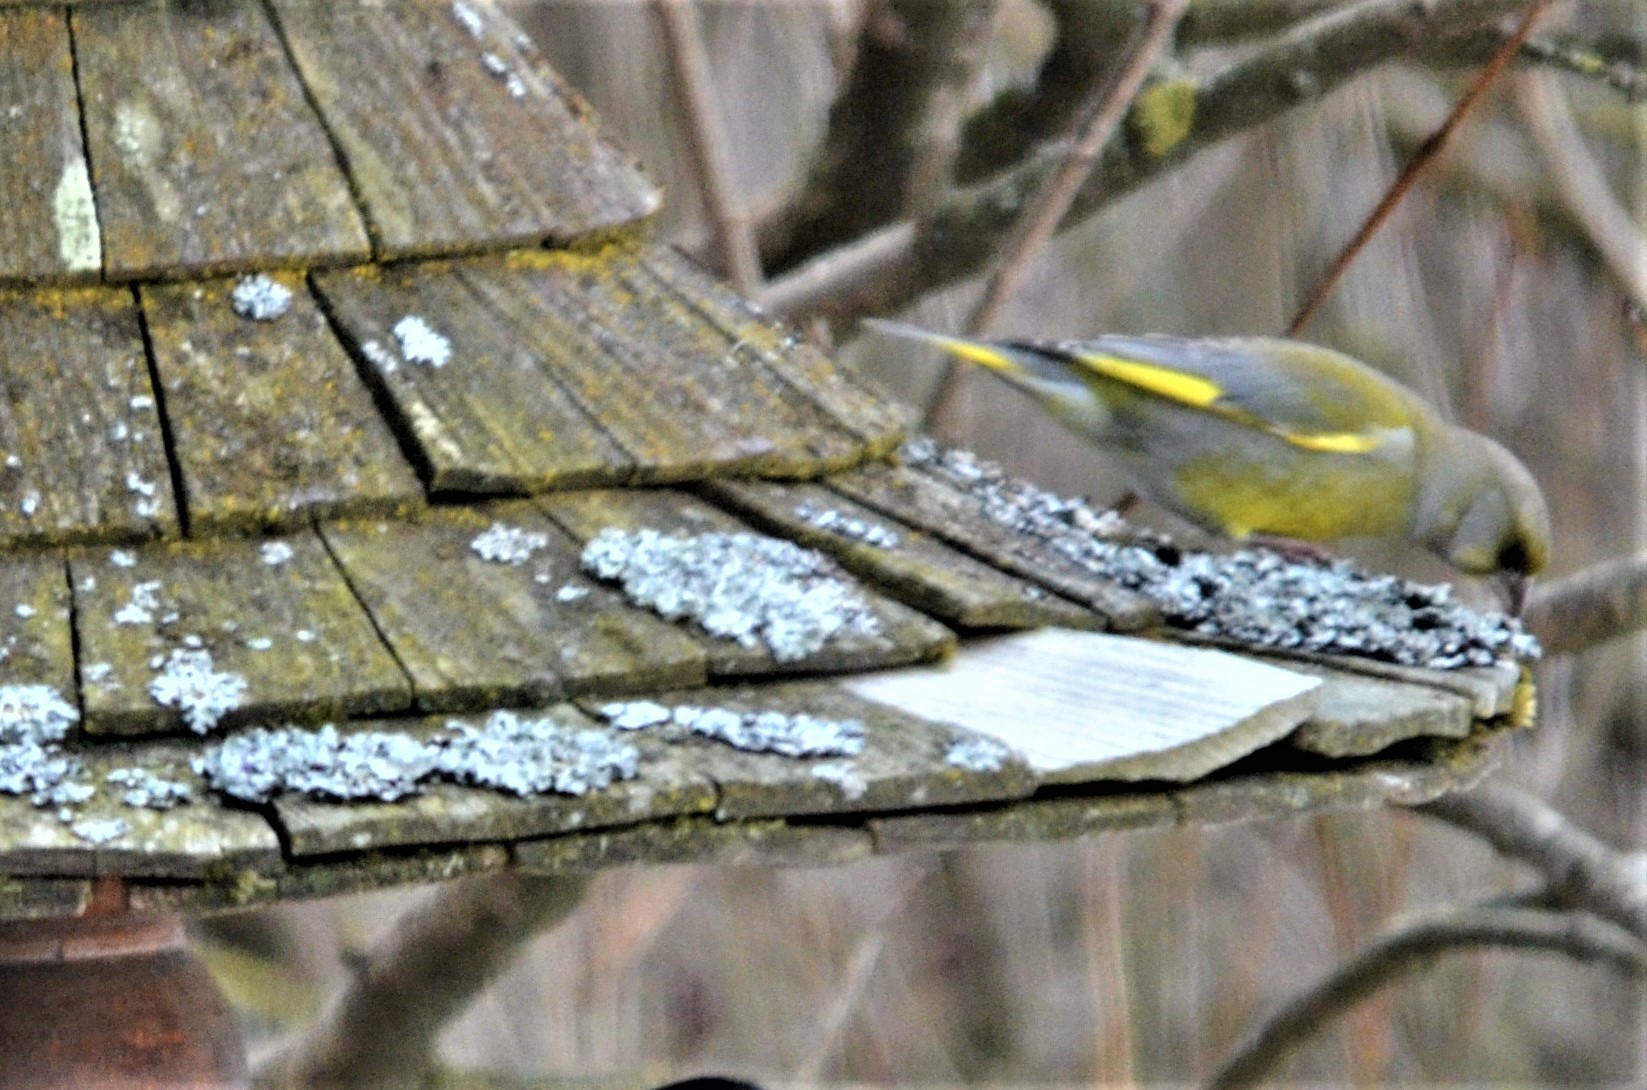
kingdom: Plantae
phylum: Tracheophyta
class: Liliopsida
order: Poales
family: Poaceae
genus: Chloris
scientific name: Chloris chloris
